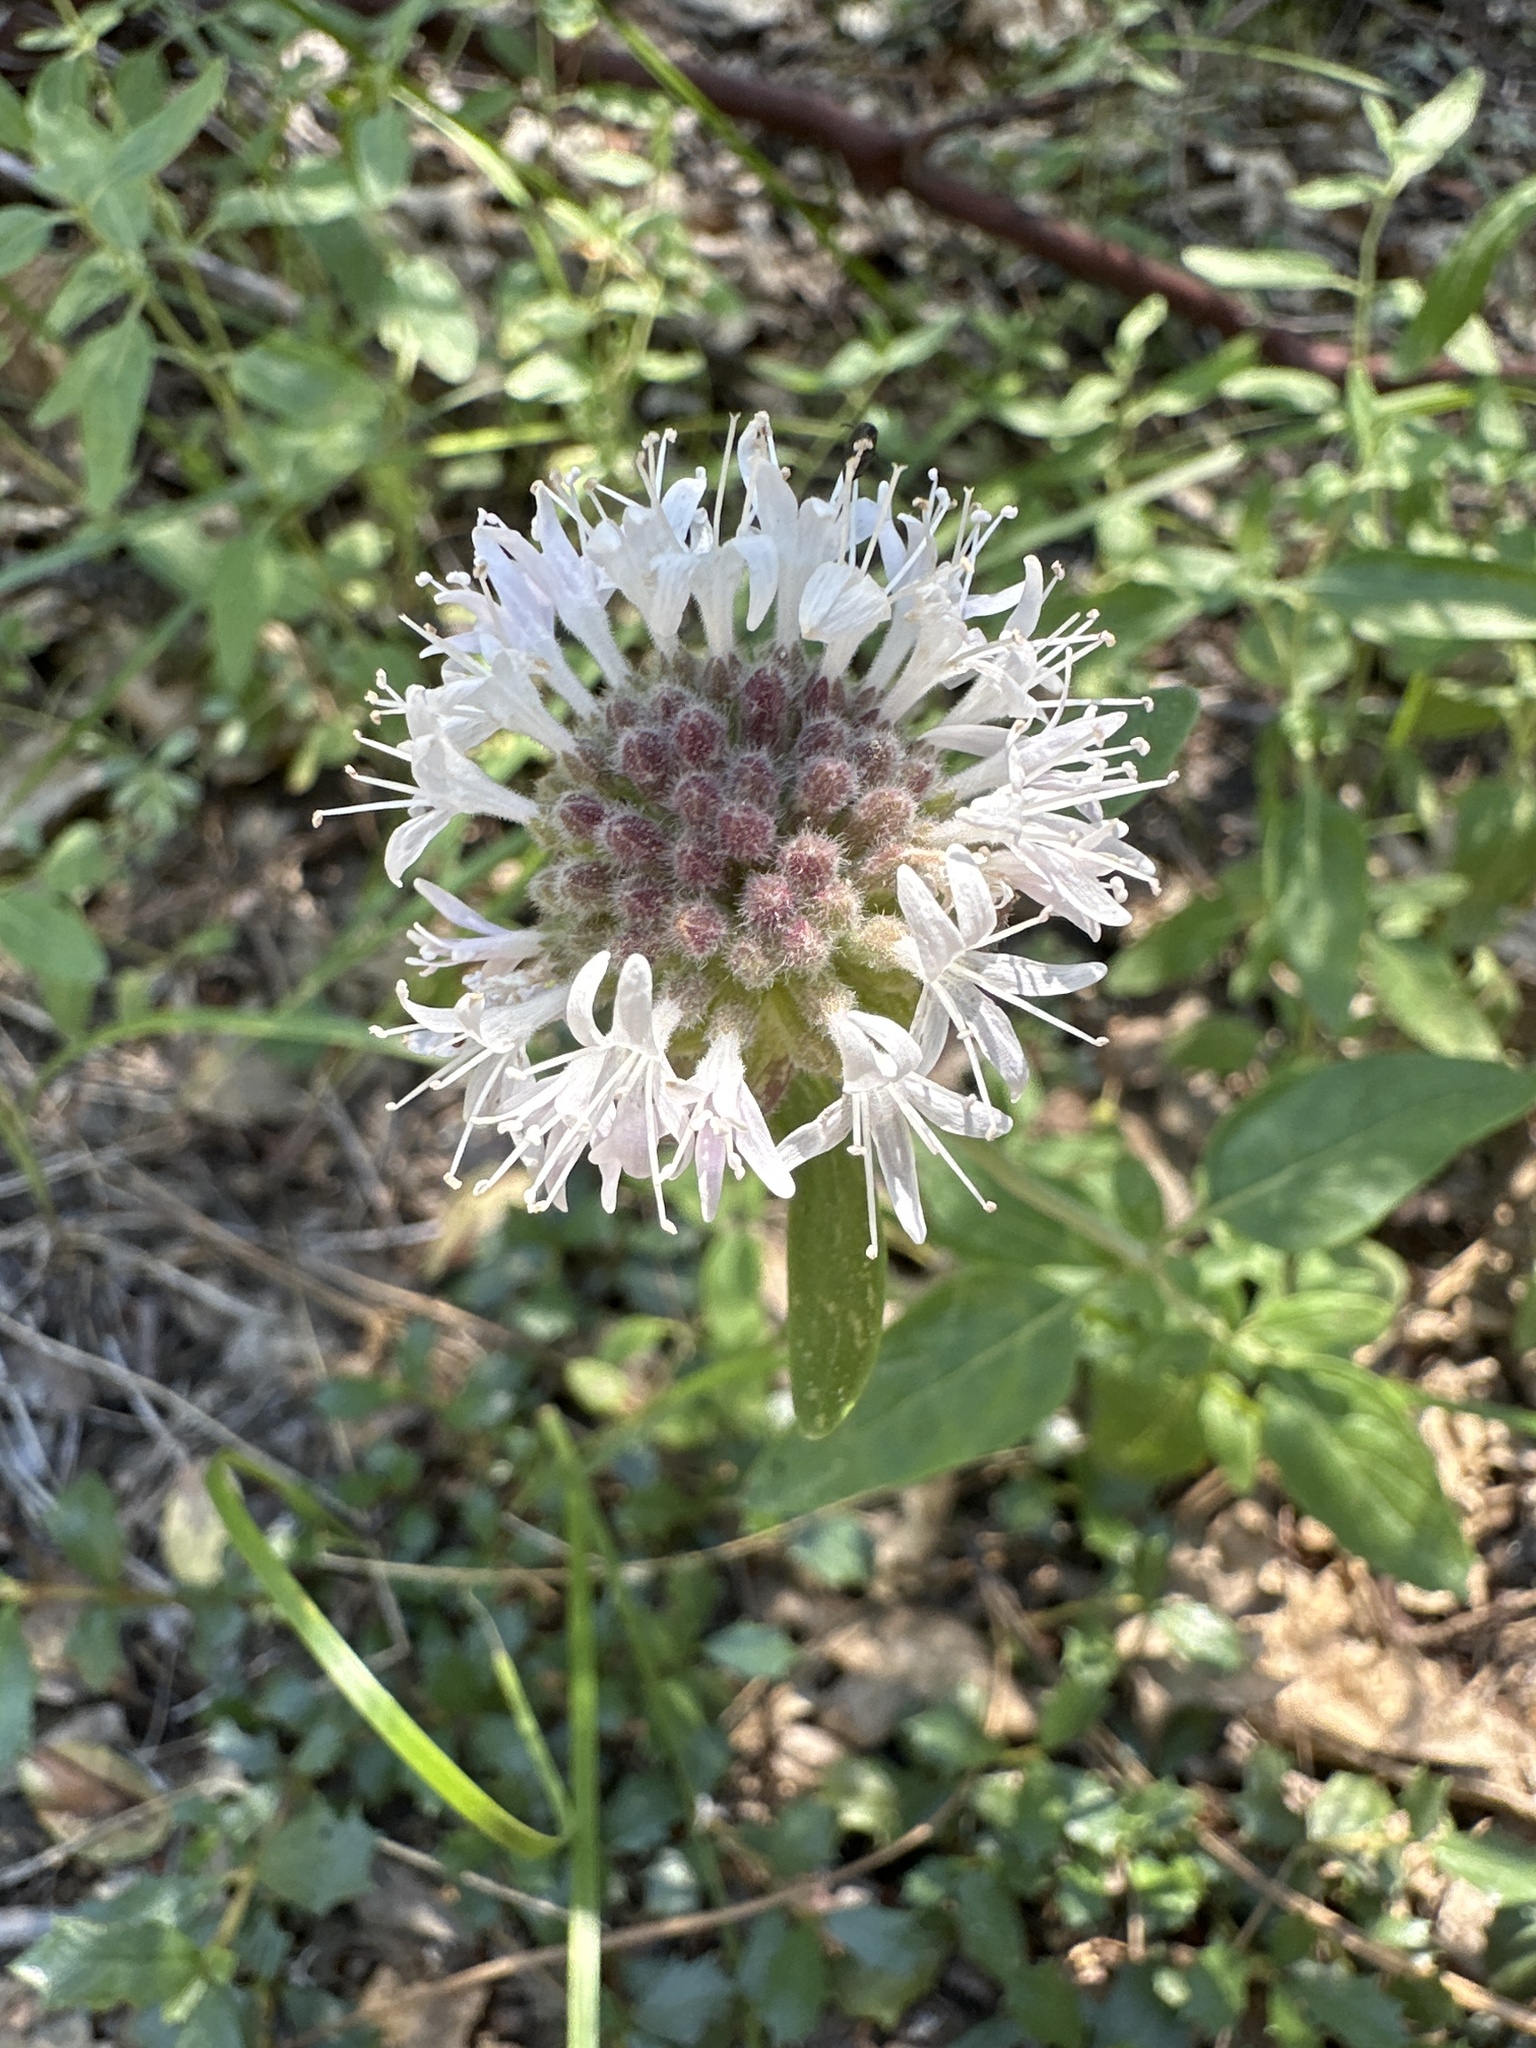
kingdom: Plantae
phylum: Tracheophyta
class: Magnoliopsida
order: Lamiales
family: Lamiaceae
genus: Monardella
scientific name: Monardella odoratissima
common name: Pacific monardella
